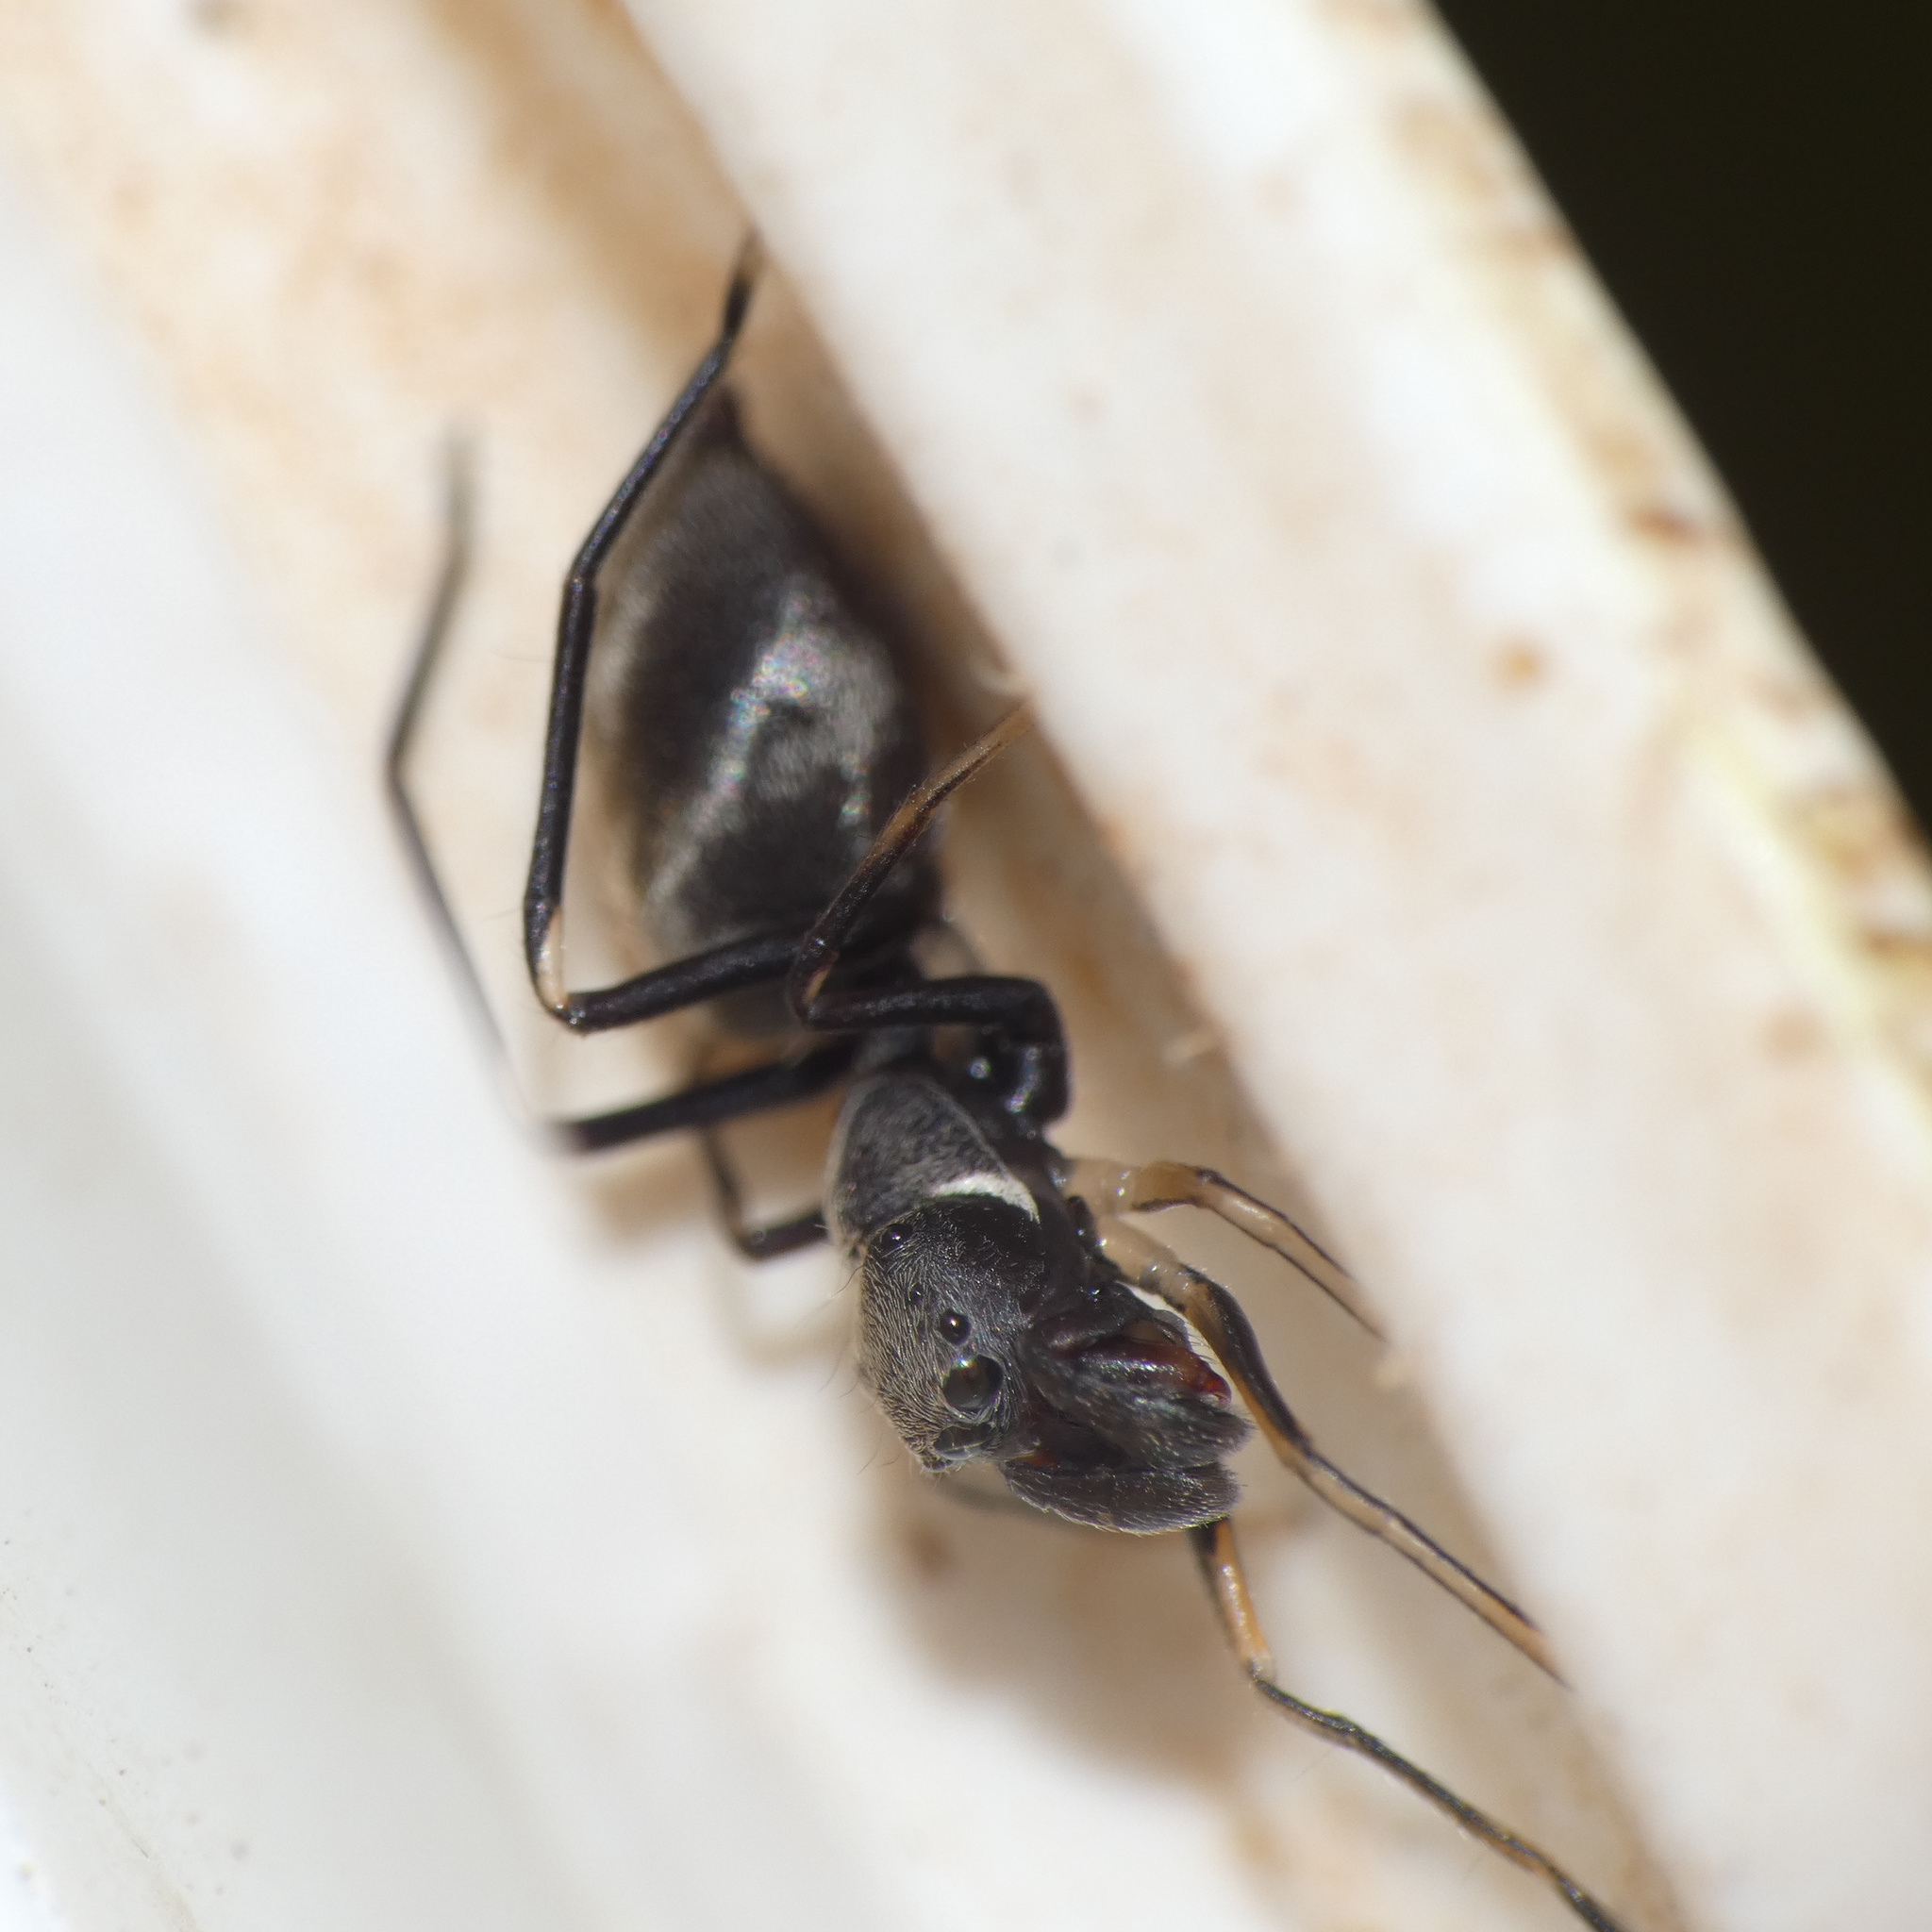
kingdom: Animalia
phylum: Arthropoda
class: Arachnida
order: Araneae
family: Salticidae
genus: Myrmarachne
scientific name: Myrmarachne marshalli
